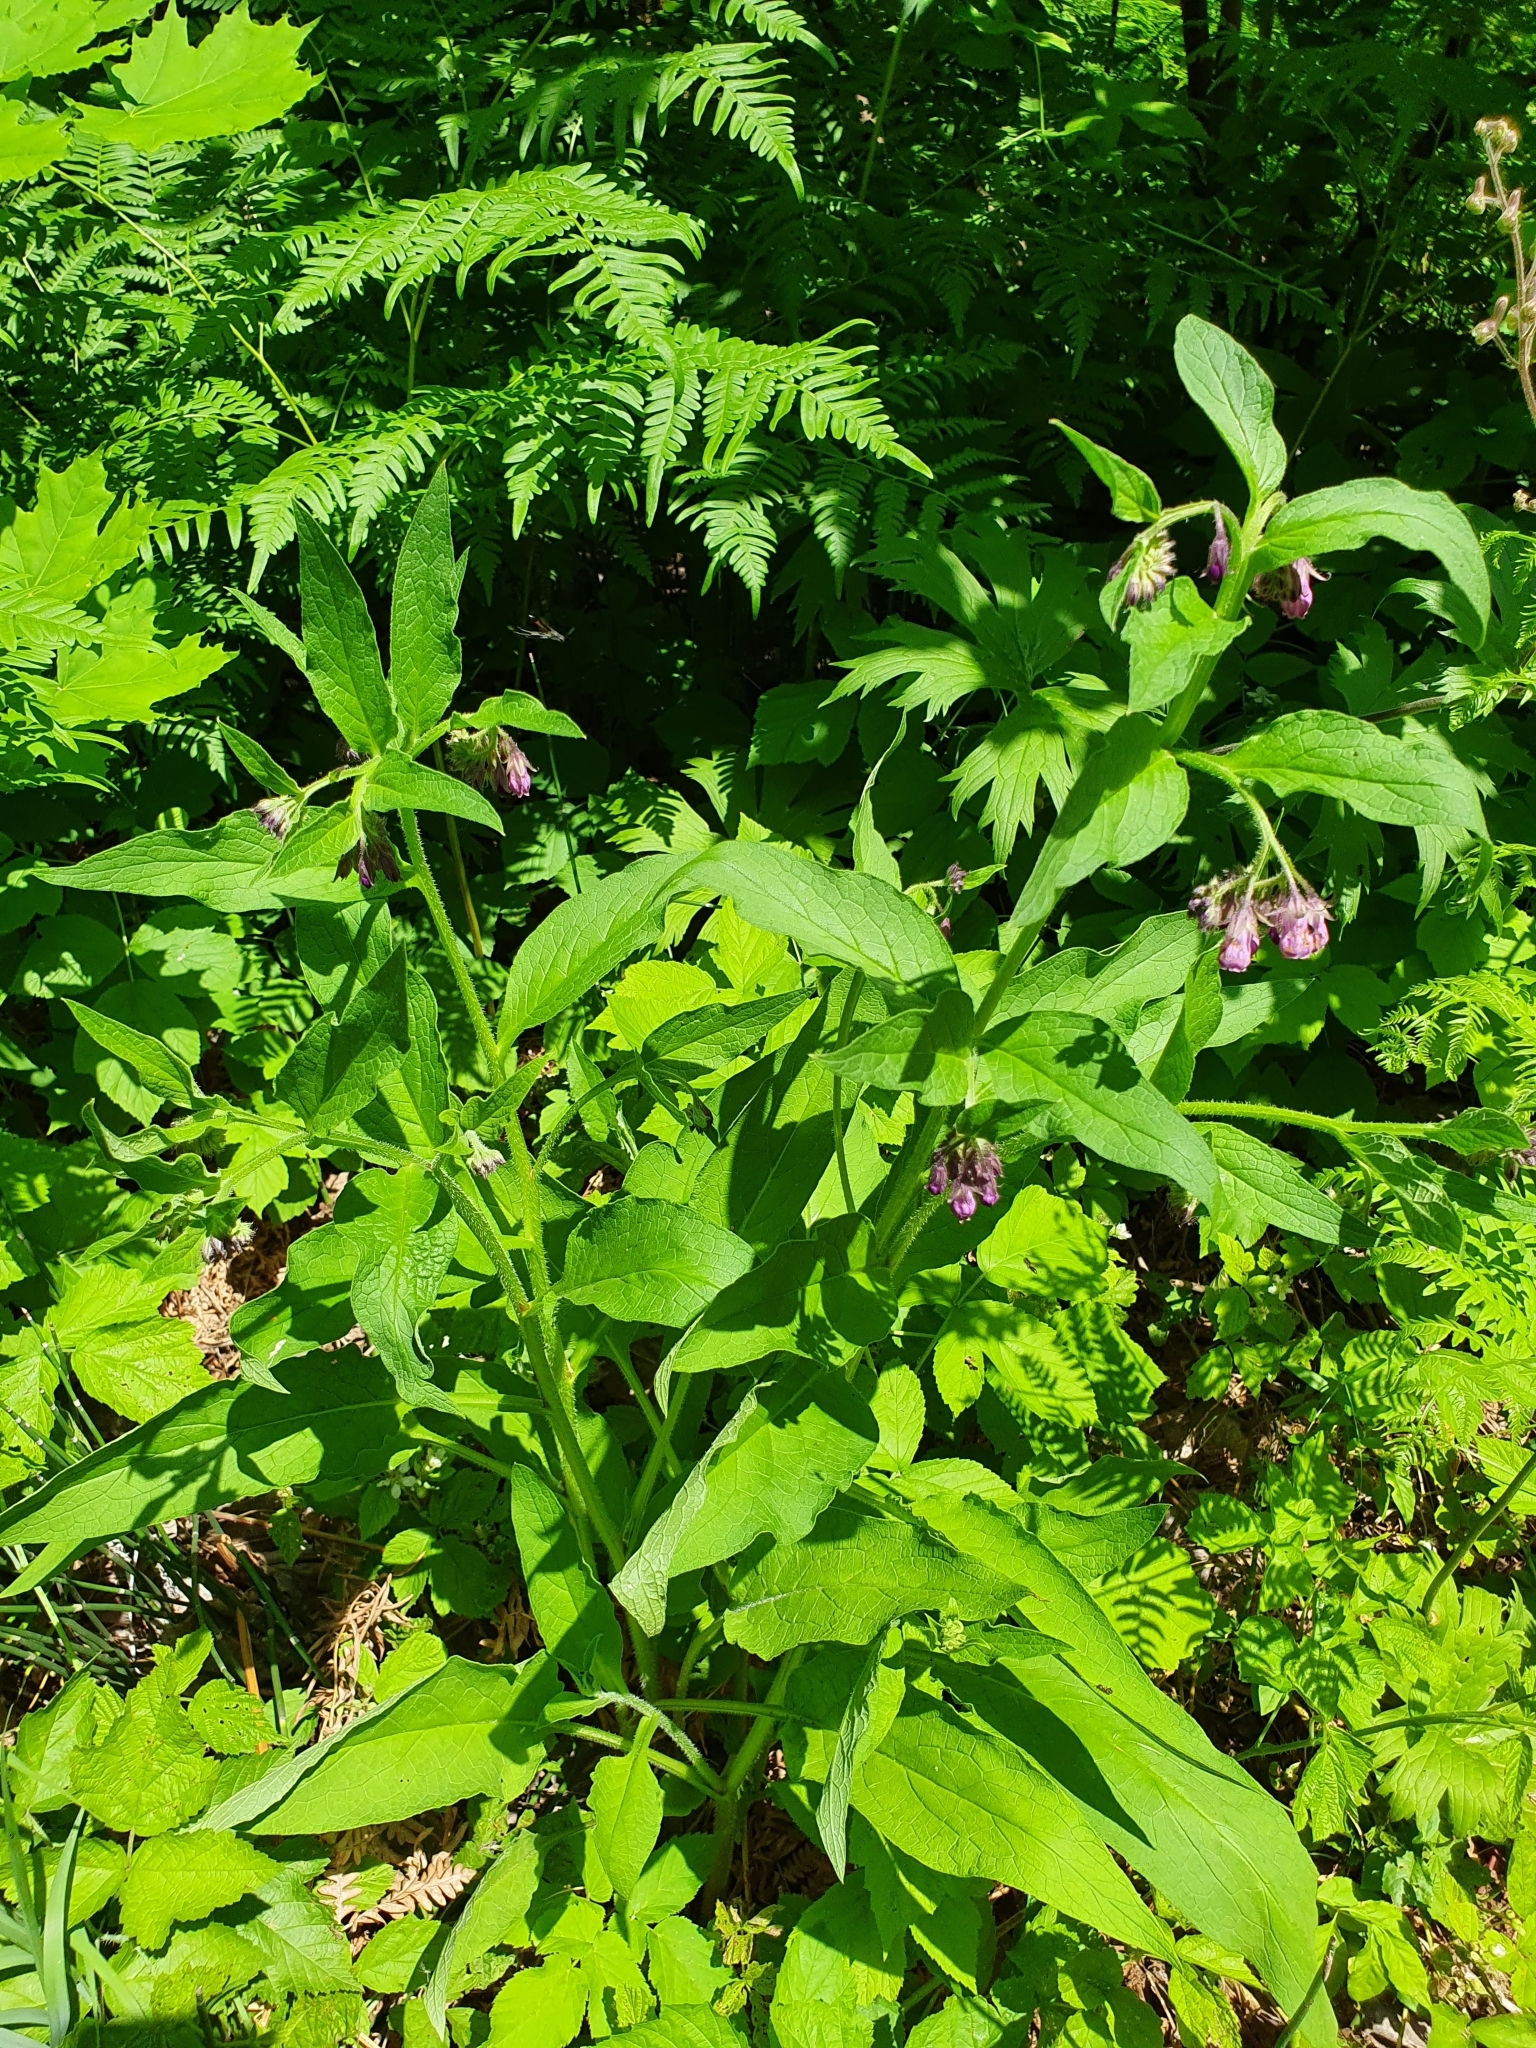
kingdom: Plantae
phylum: Tracheophyta
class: Magnoliopsida
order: Boraginales
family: Boraginaceae
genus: Symphytum
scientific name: Symphytum officinale
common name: Common comfrey
